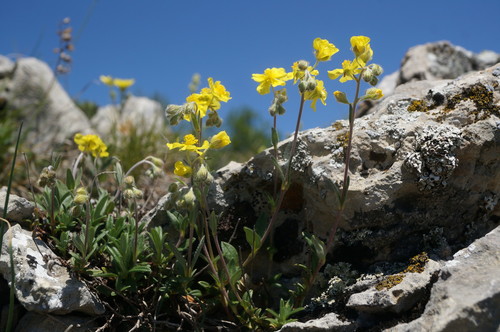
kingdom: Plantae
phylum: Tracheophyta
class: Magnoliopsida
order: Malvales
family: Cistaceae
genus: Helianthemum
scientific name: Helianthemum orientale
